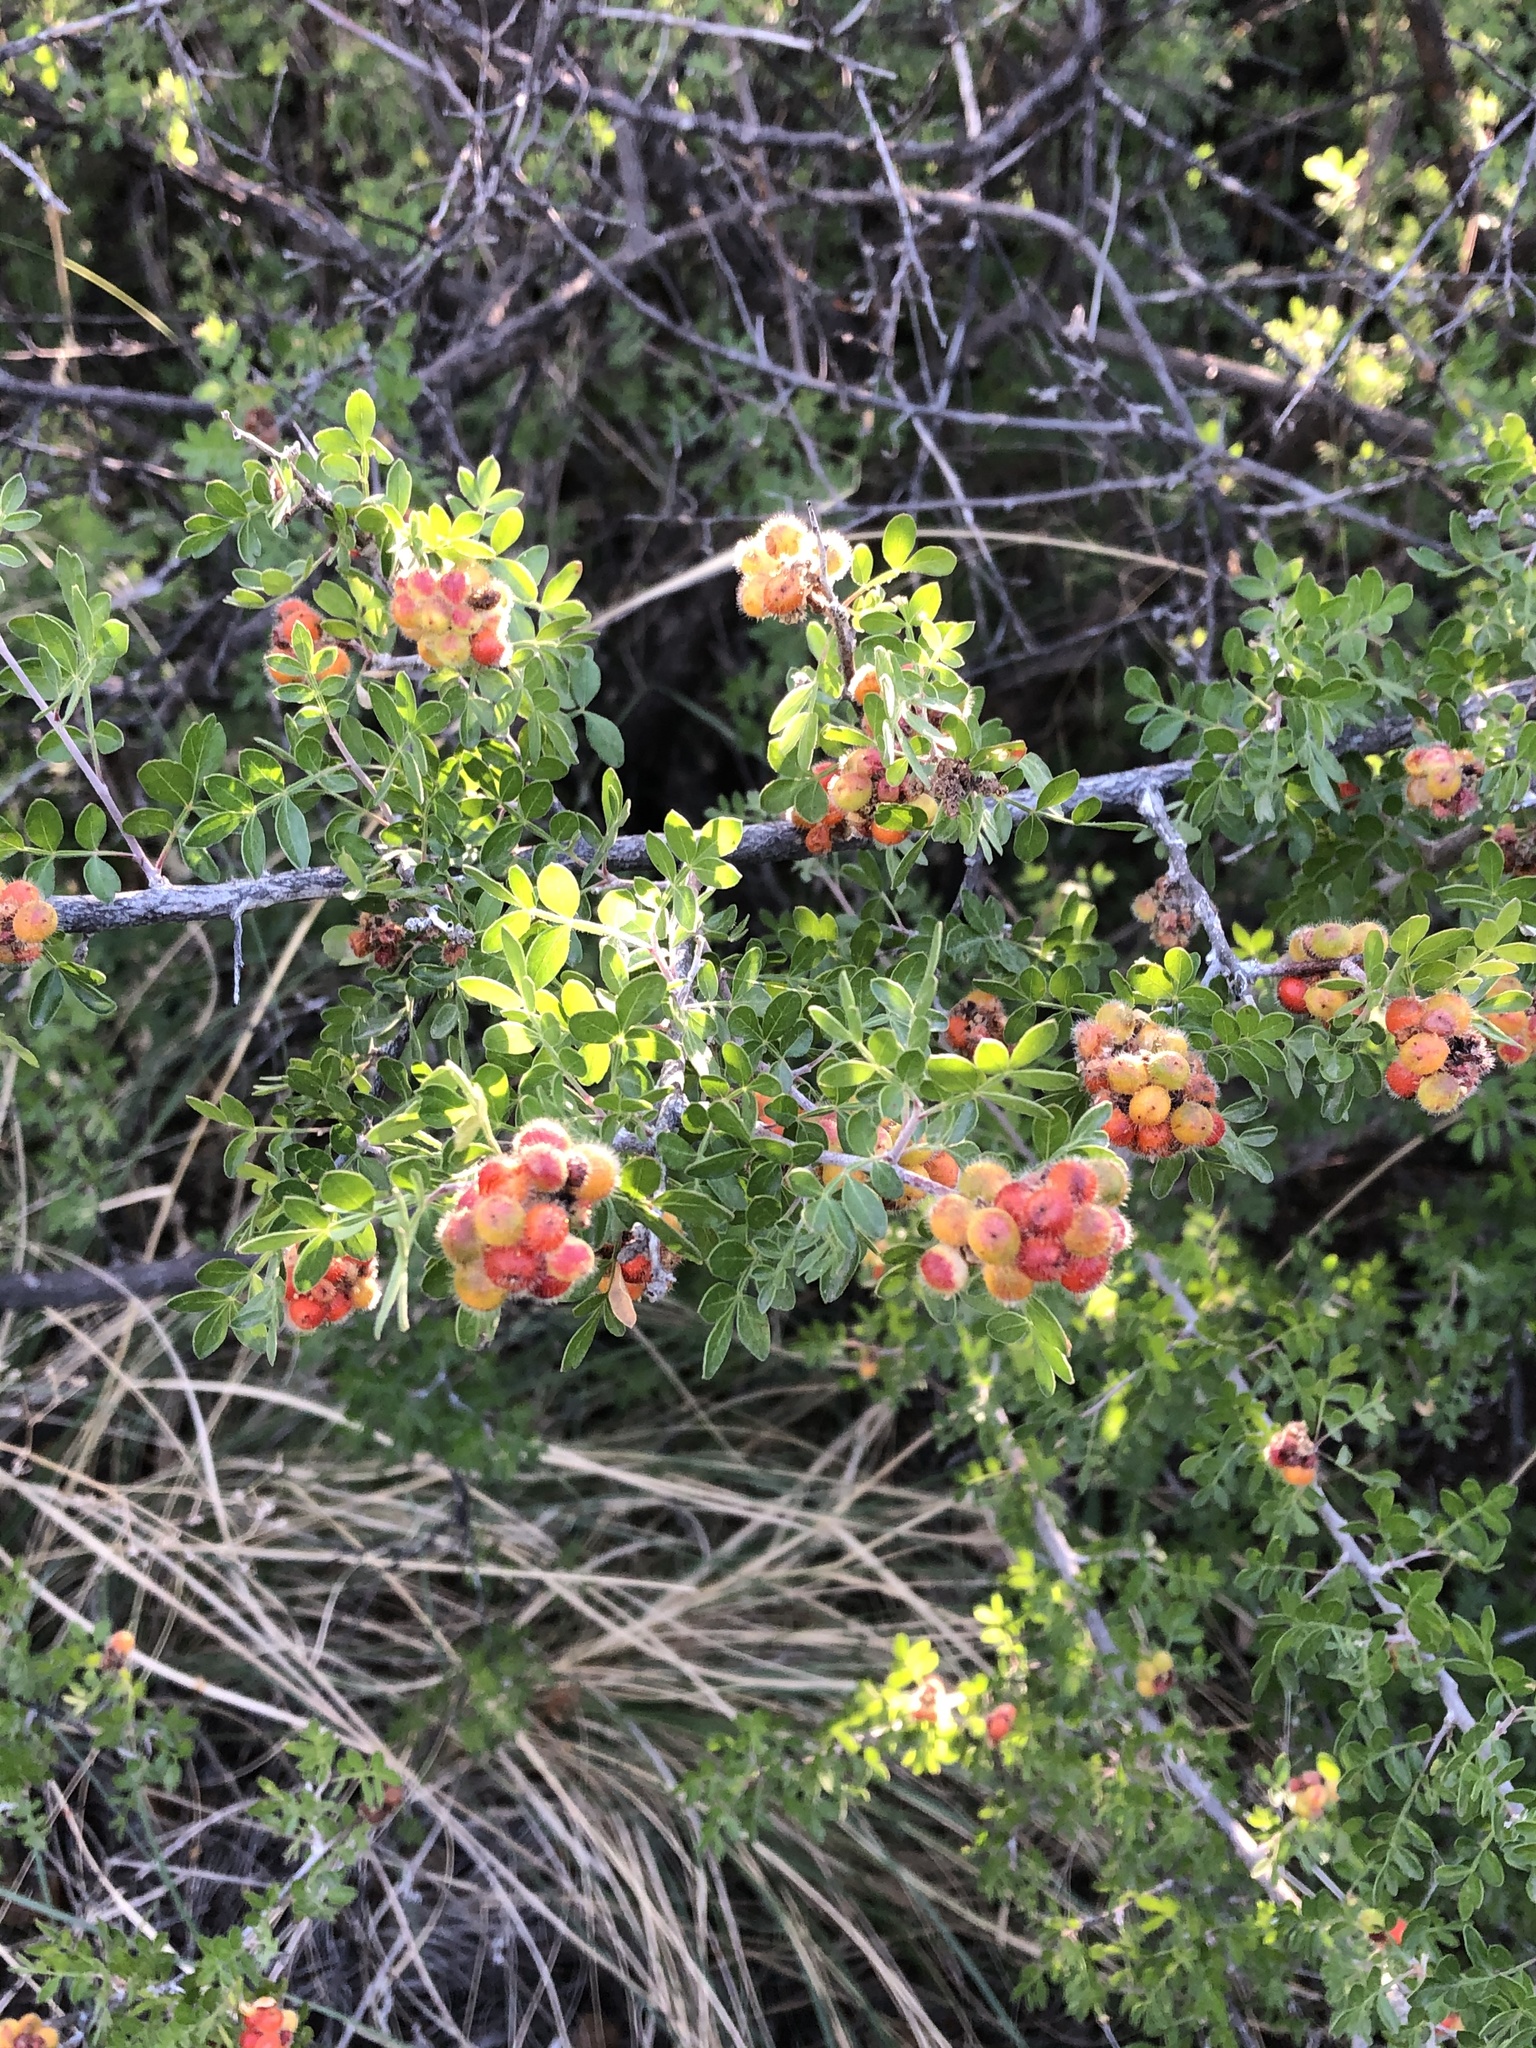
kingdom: Plantae
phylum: Tracheophyta
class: Magnoliopsida
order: Sapindales
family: Anacardiaceae
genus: Rhus
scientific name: Rhus microphylla
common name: Desert sumac
